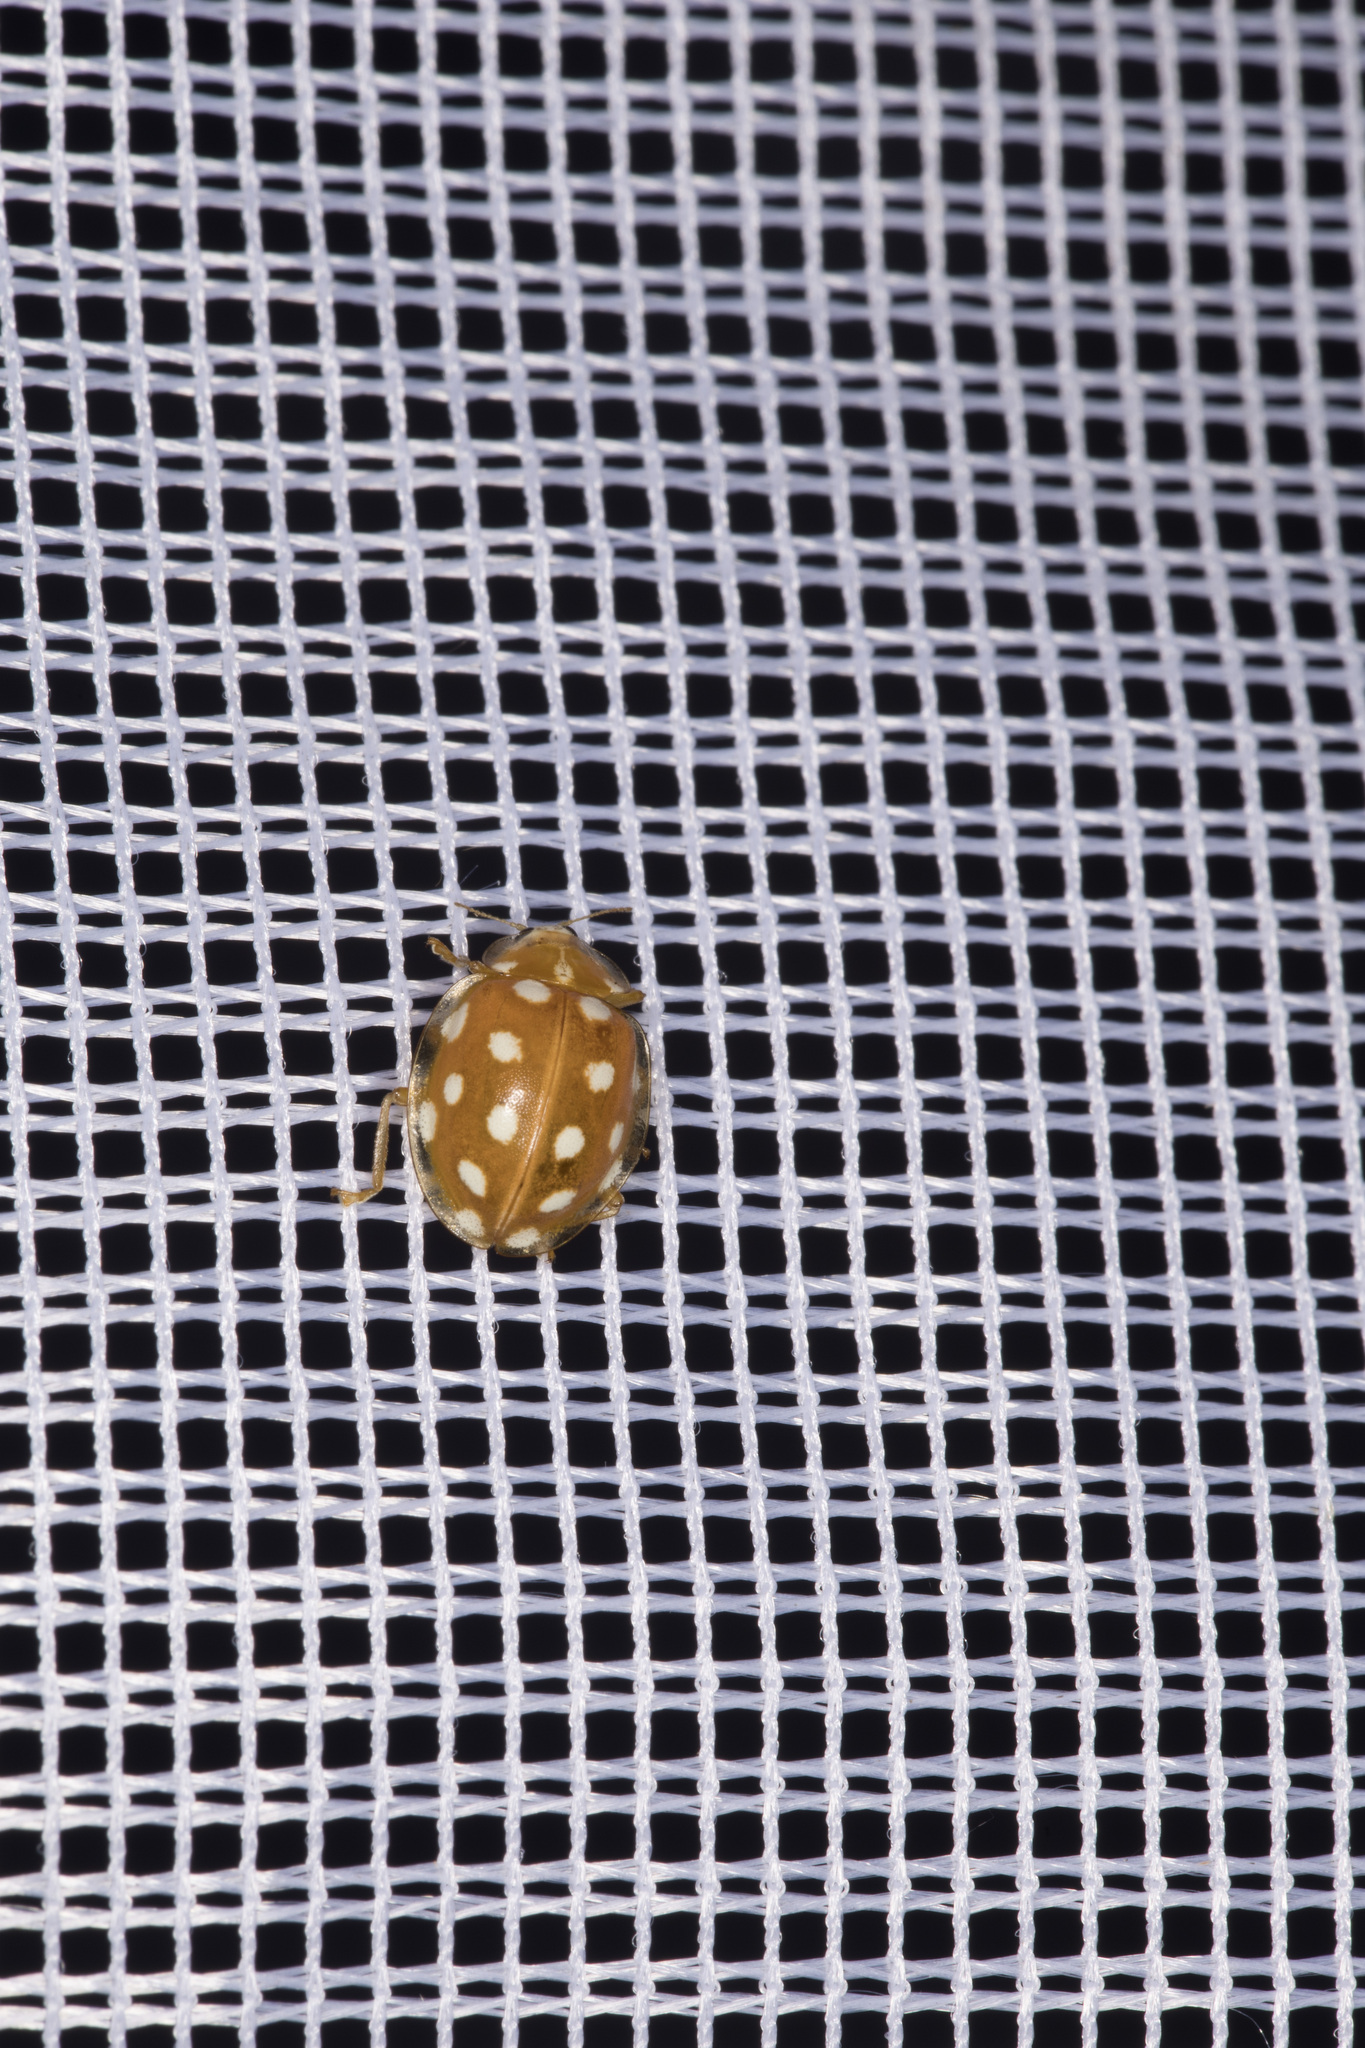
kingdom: Animalia
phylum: Arthropoda
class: Insecta
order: Coleoptera
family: Coccinellidae
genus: Halyzia
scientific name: Halyzia sedecimguttata
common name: Orange ladybird
